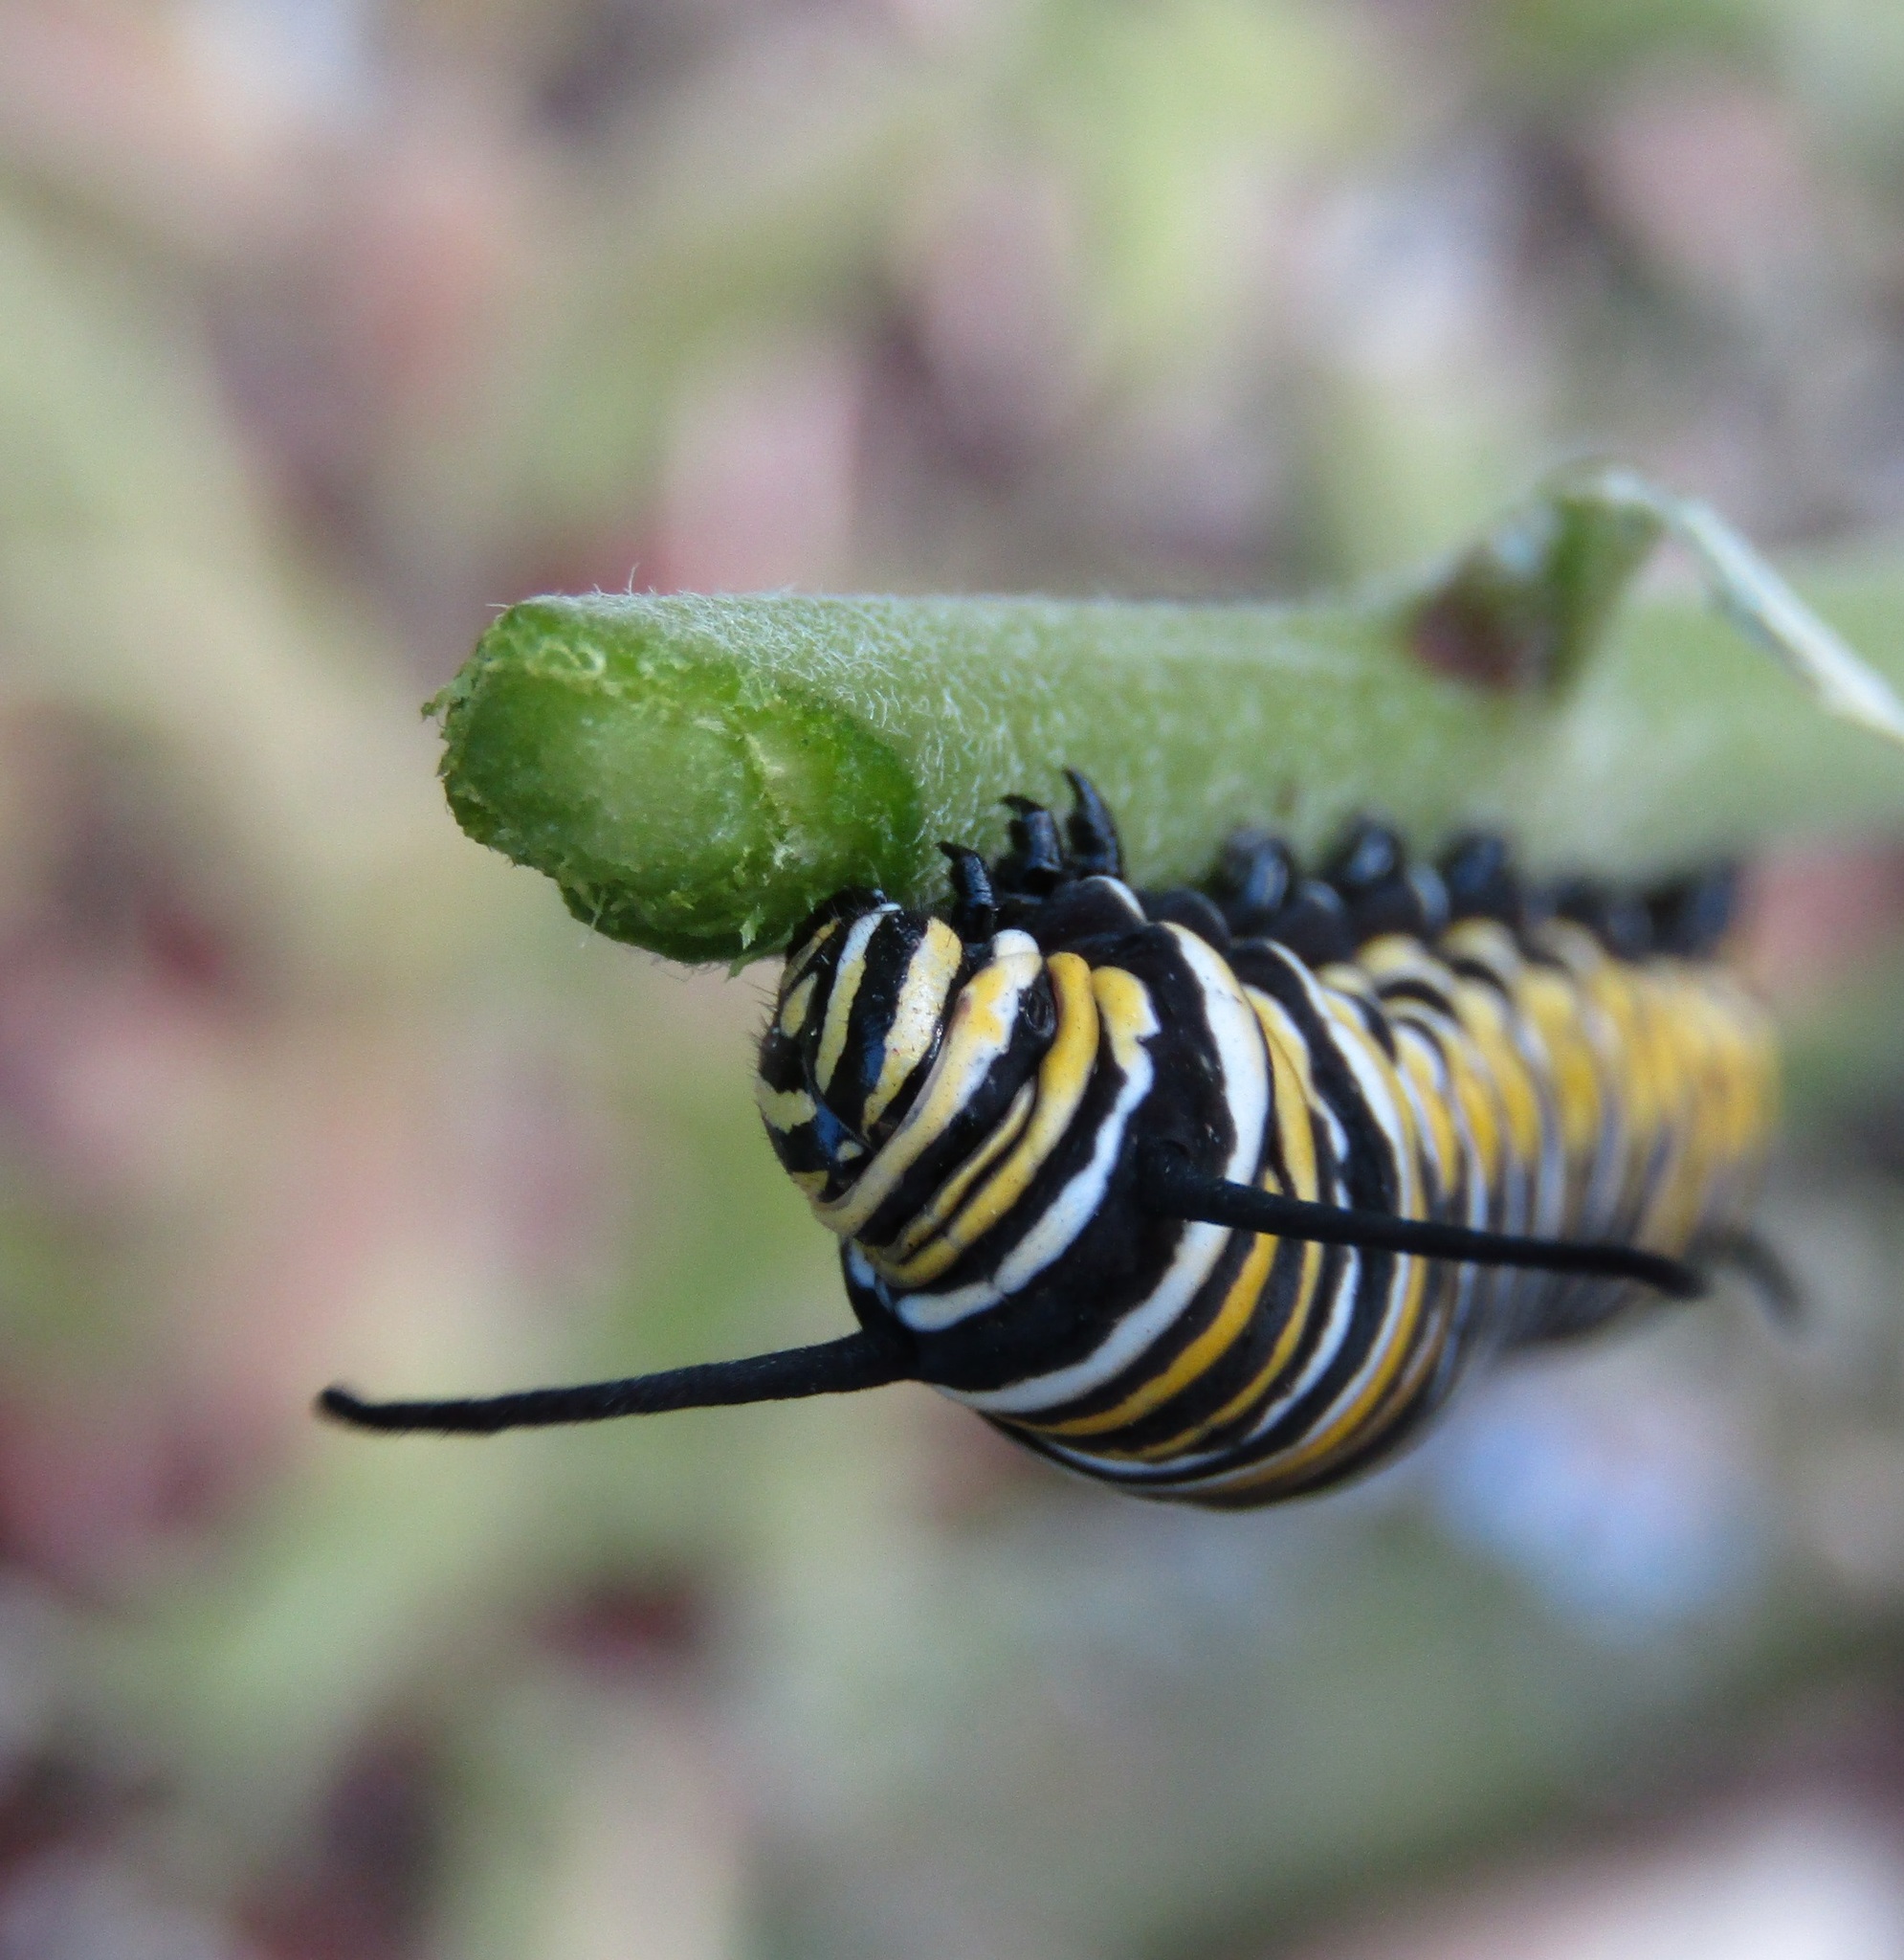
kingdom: Animalia
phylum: Arthropoda
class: Insecta
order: Lepidoptera
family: Nymphalidae
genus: Danaus
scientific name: Danaus plexippus
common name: Monarch
